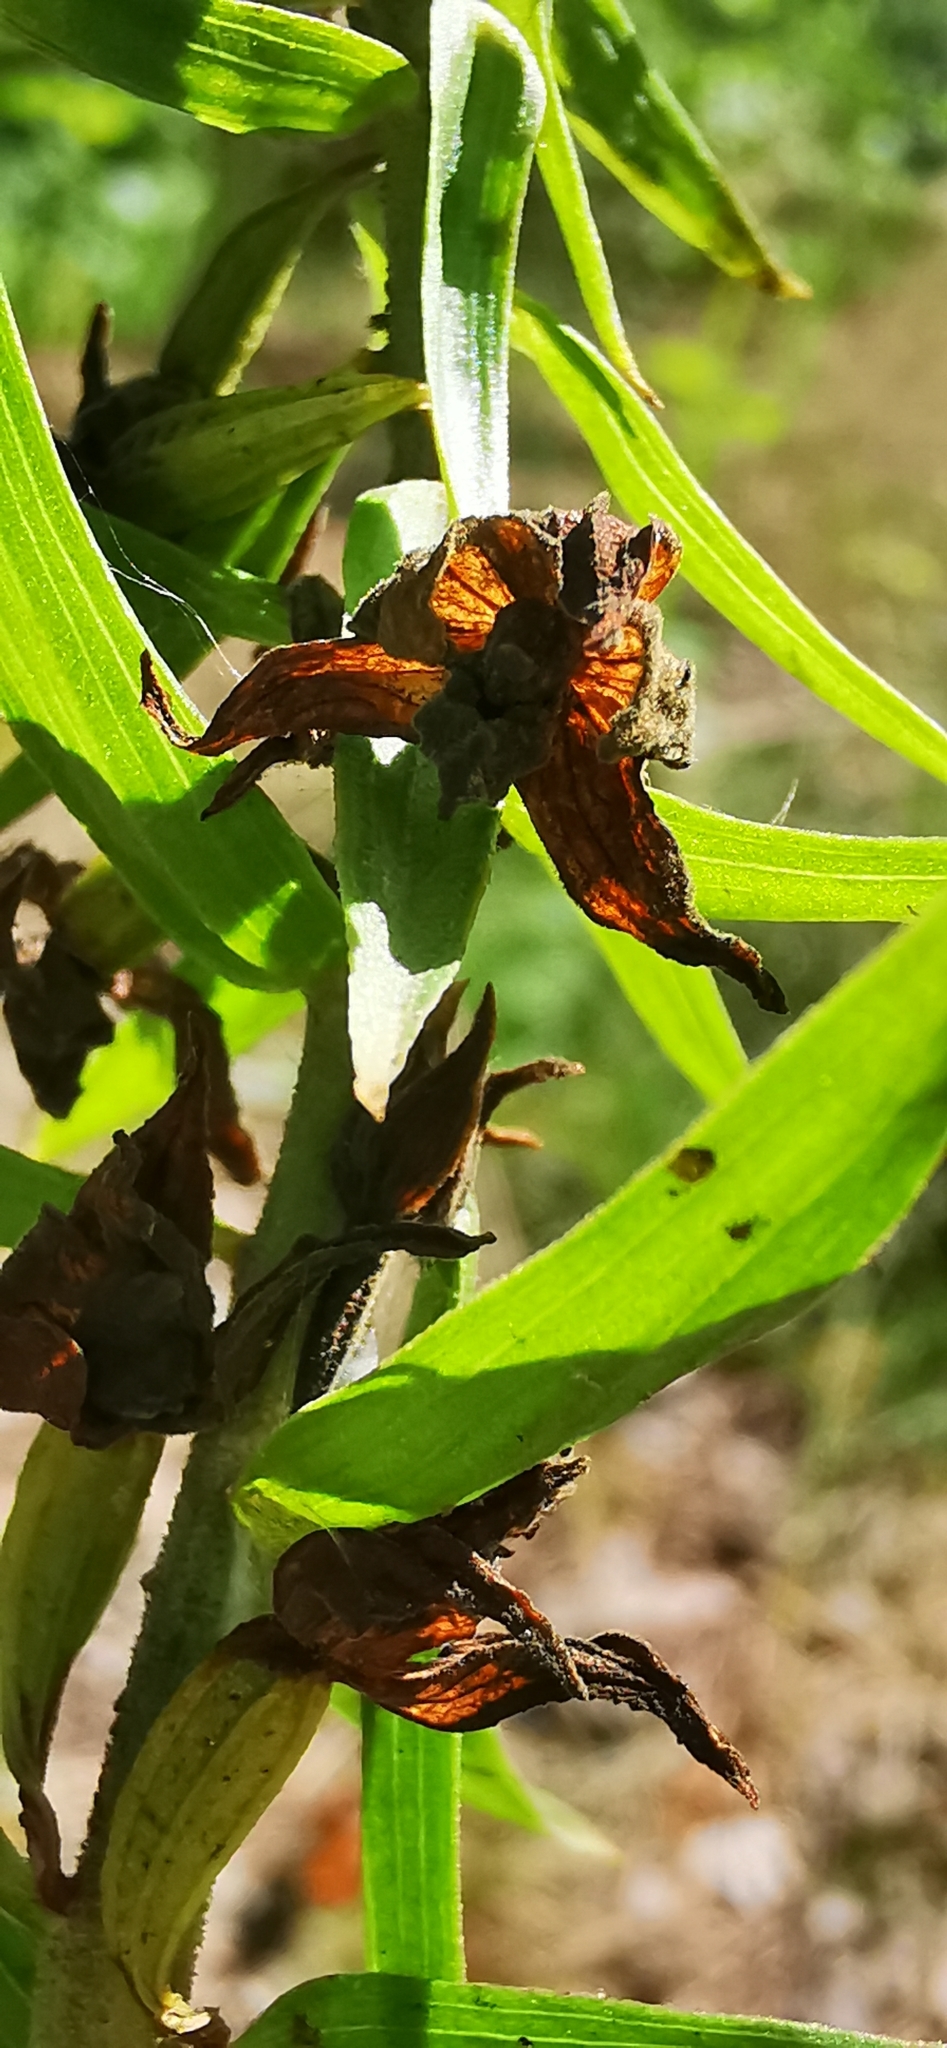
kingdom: Plantae
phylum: Tracheophyta
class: Liliopsida
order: Asparagales
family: Orchidaceae
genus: Epipactis
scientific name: Epipactis helleborine
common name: Broad-leaved helleborine
